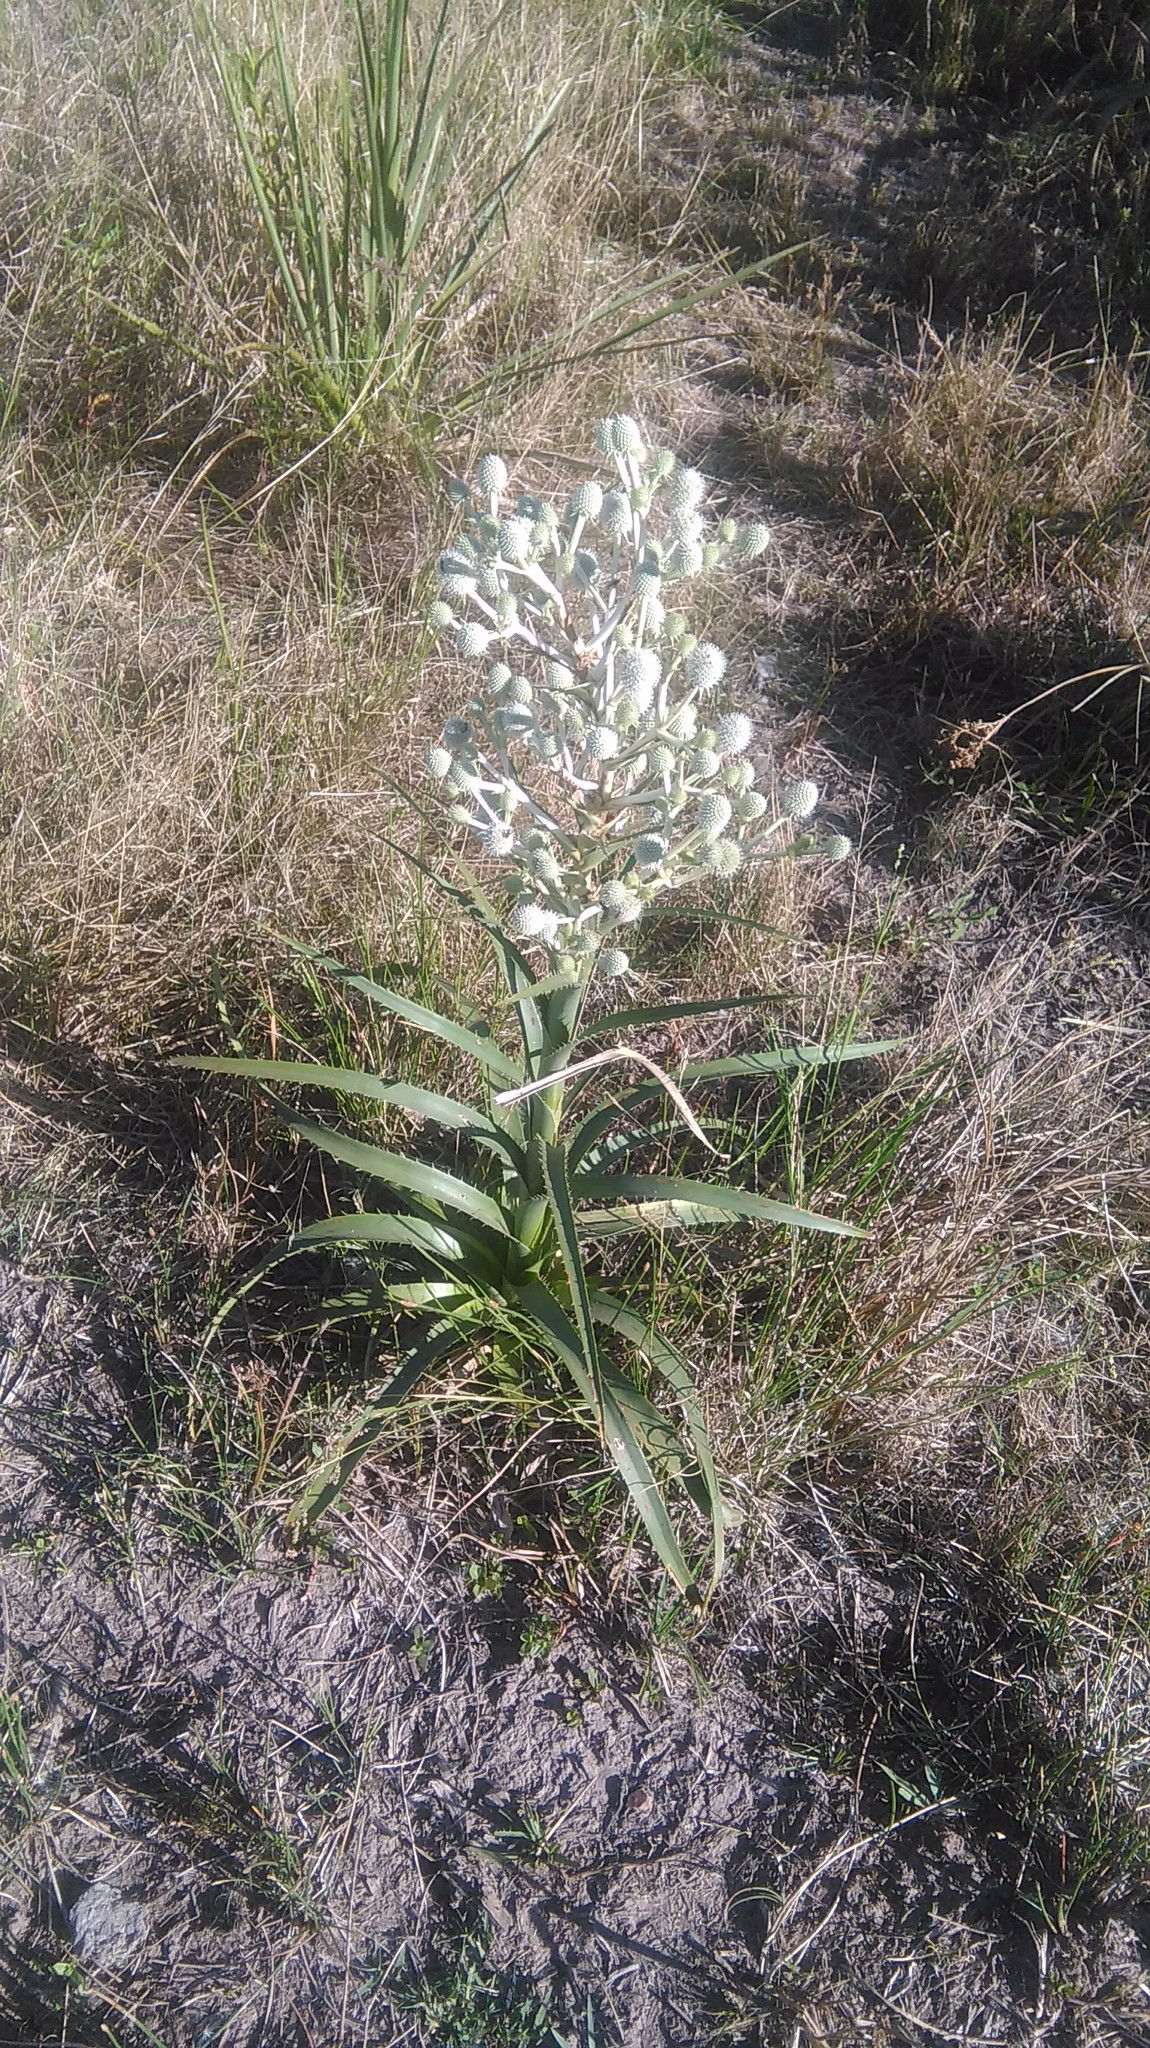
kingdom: Plantae
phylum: Tracheophyta
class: Magnoliopsida
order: Apiales
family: Apiaceae
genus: Eryngium
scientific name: Eryngium horridum
